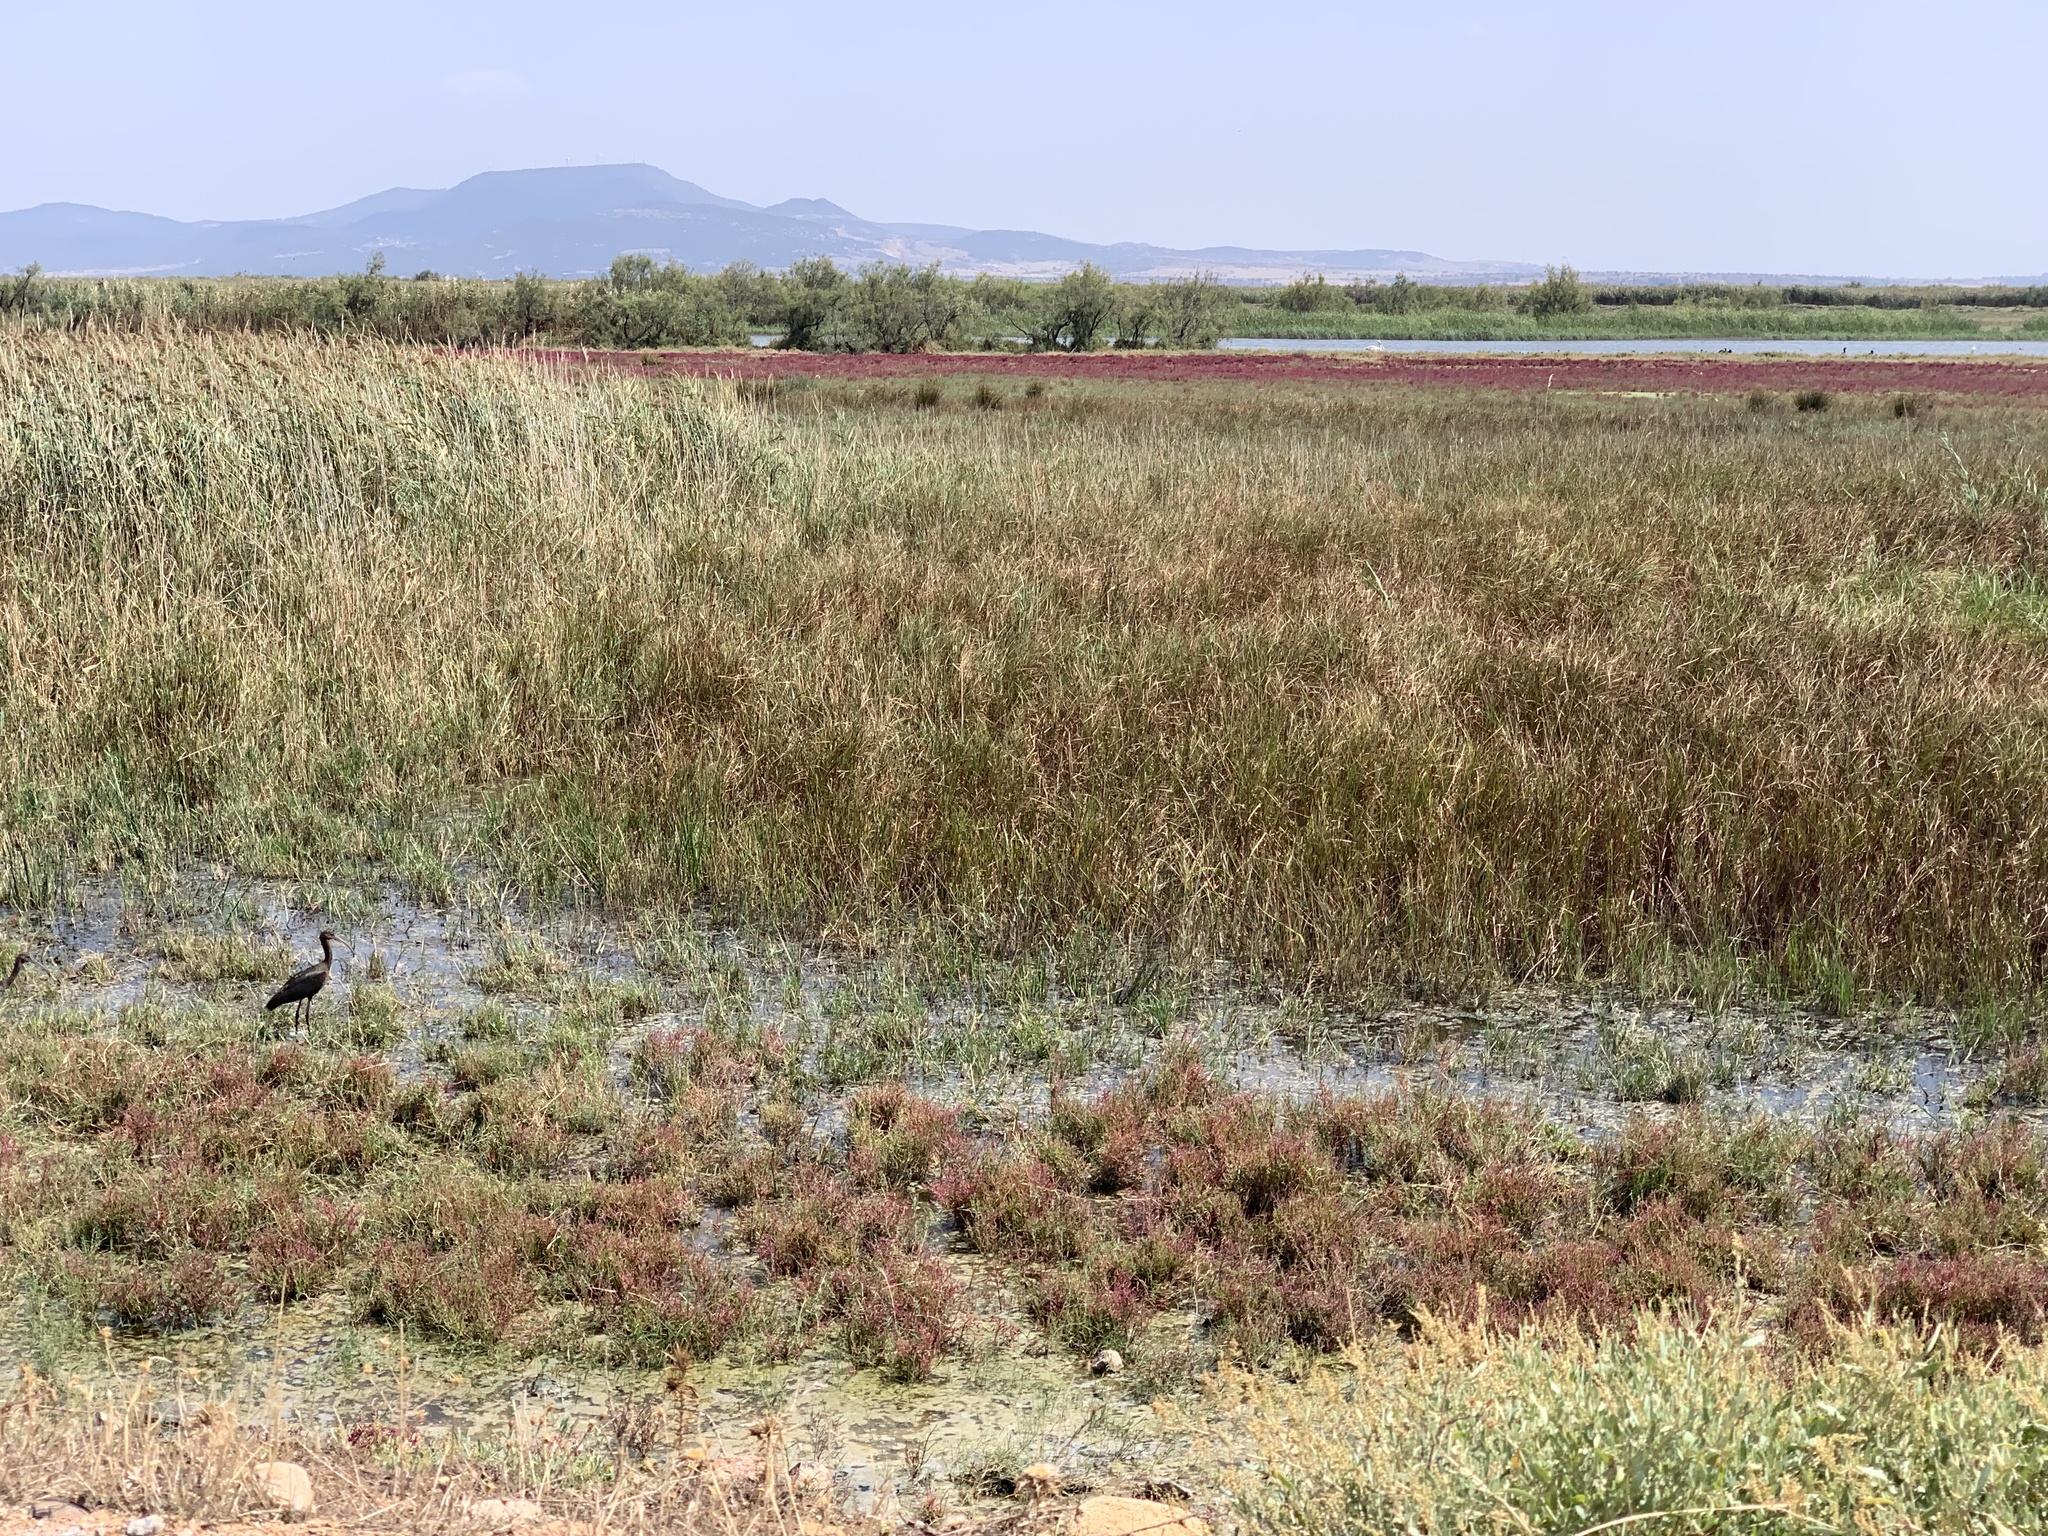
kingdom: Animalia
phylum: Chordata
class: Aves
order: Pelecaniformes
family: Threskiornithidae
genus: Plegadis
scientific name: Plegadis falcinellus
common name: Glossy ibis
